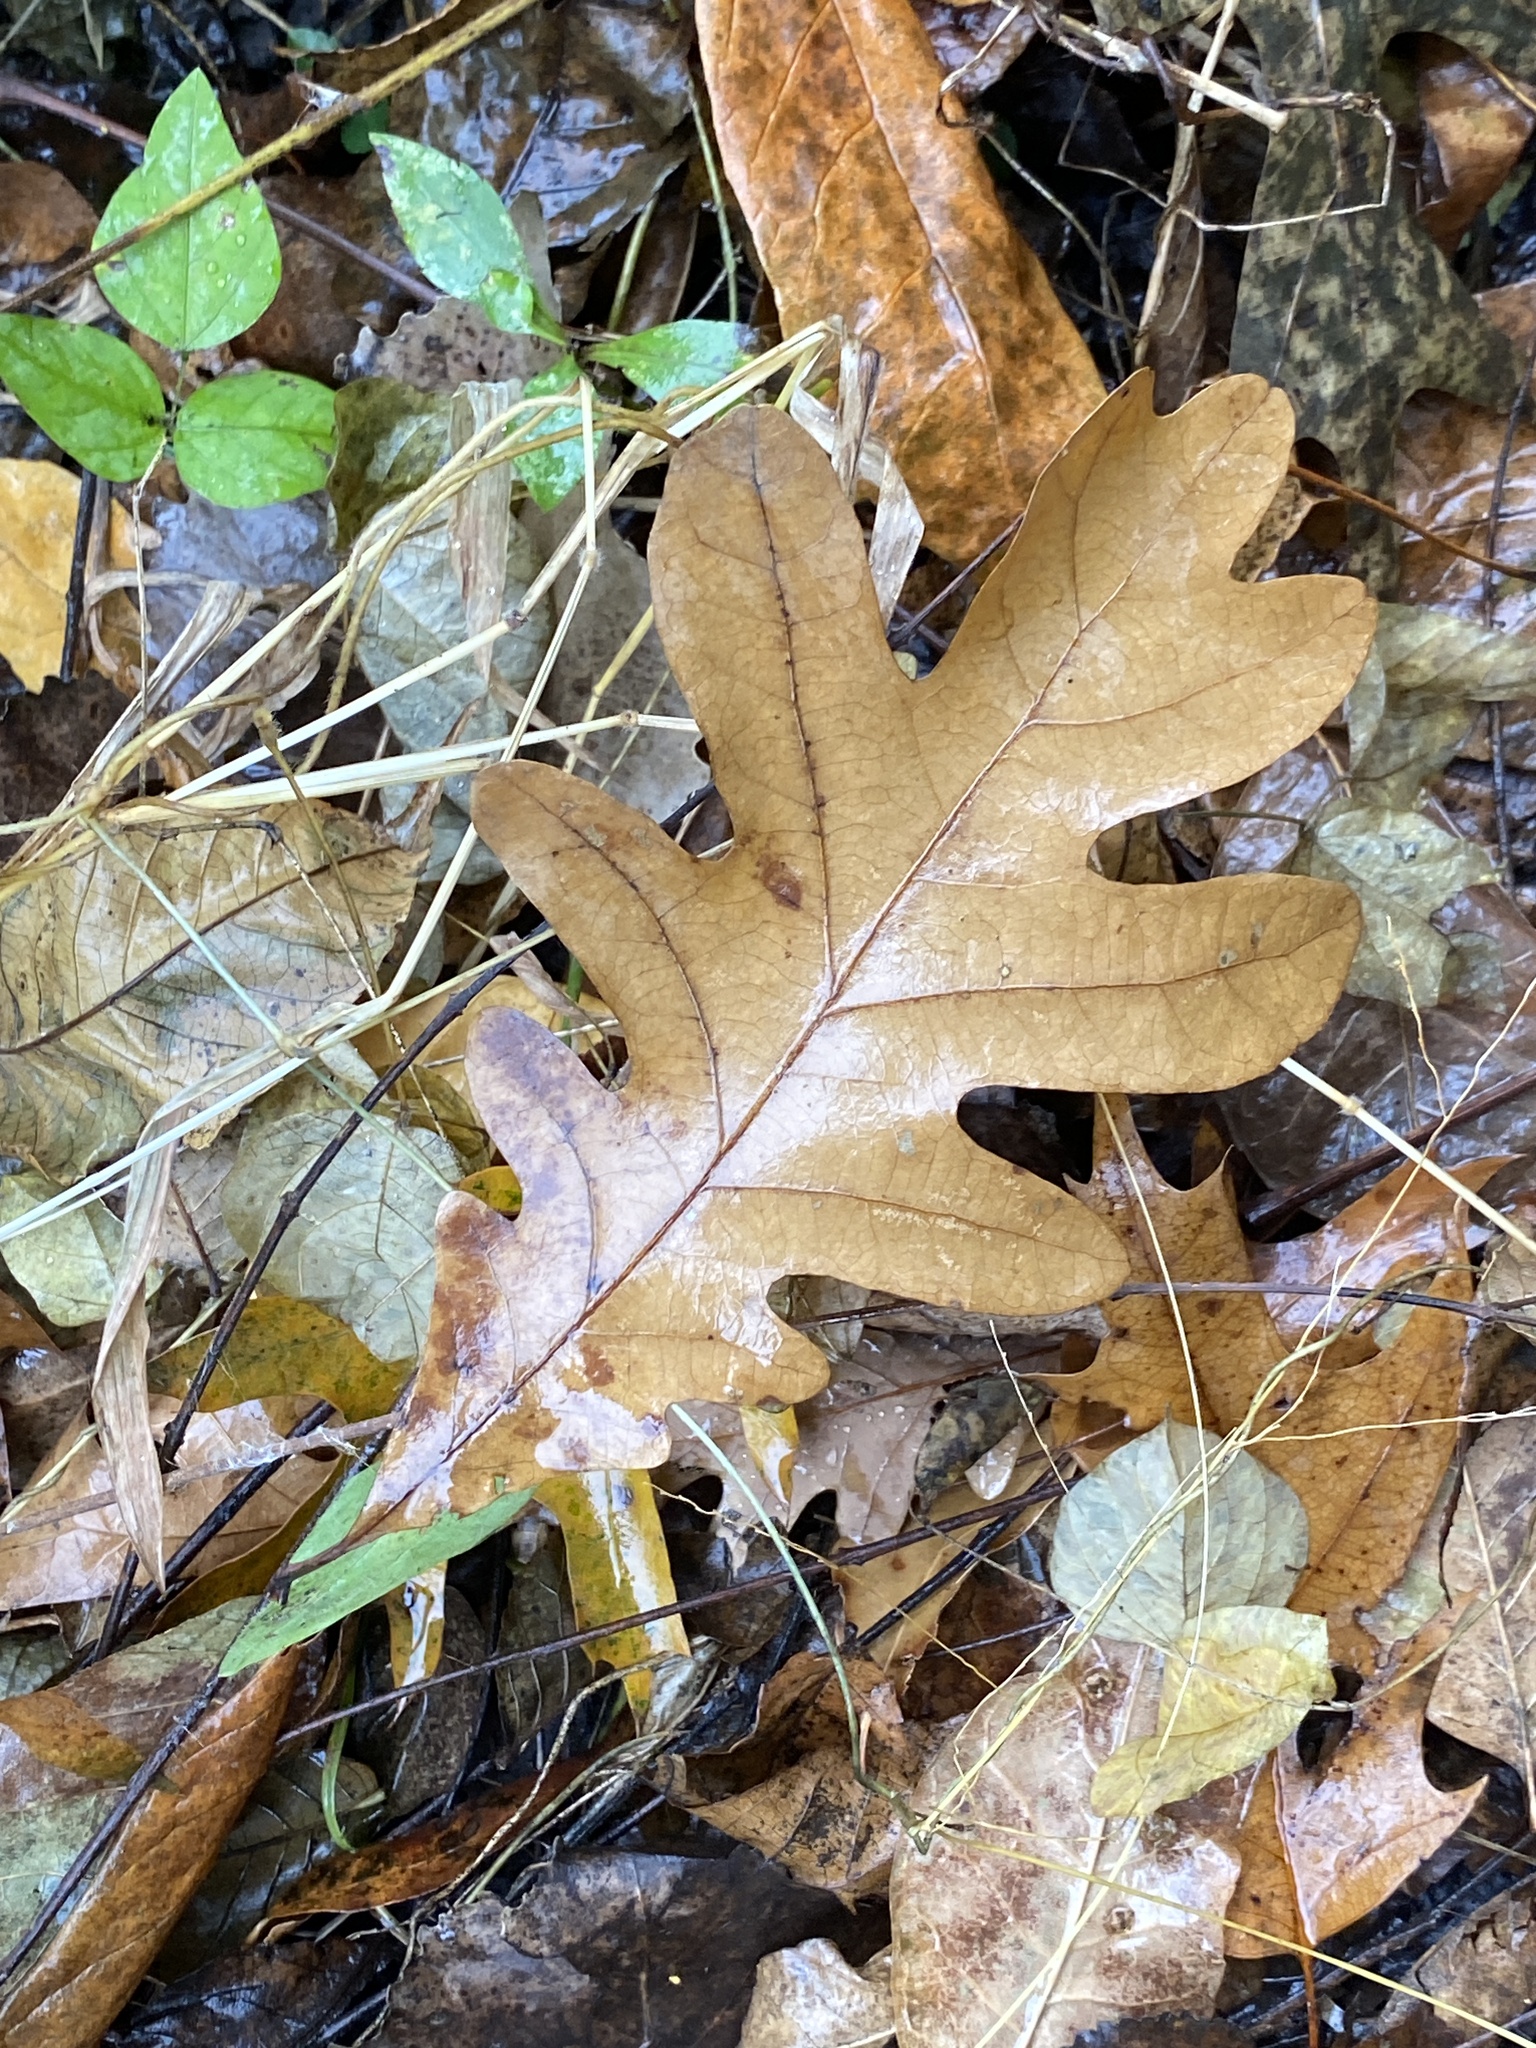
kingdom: Plantae
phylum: Tracheophyta
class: Magnoliopsida
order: Fagales
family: Fagaceae
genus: Quercus
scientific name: Quercus alba
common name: White oak
